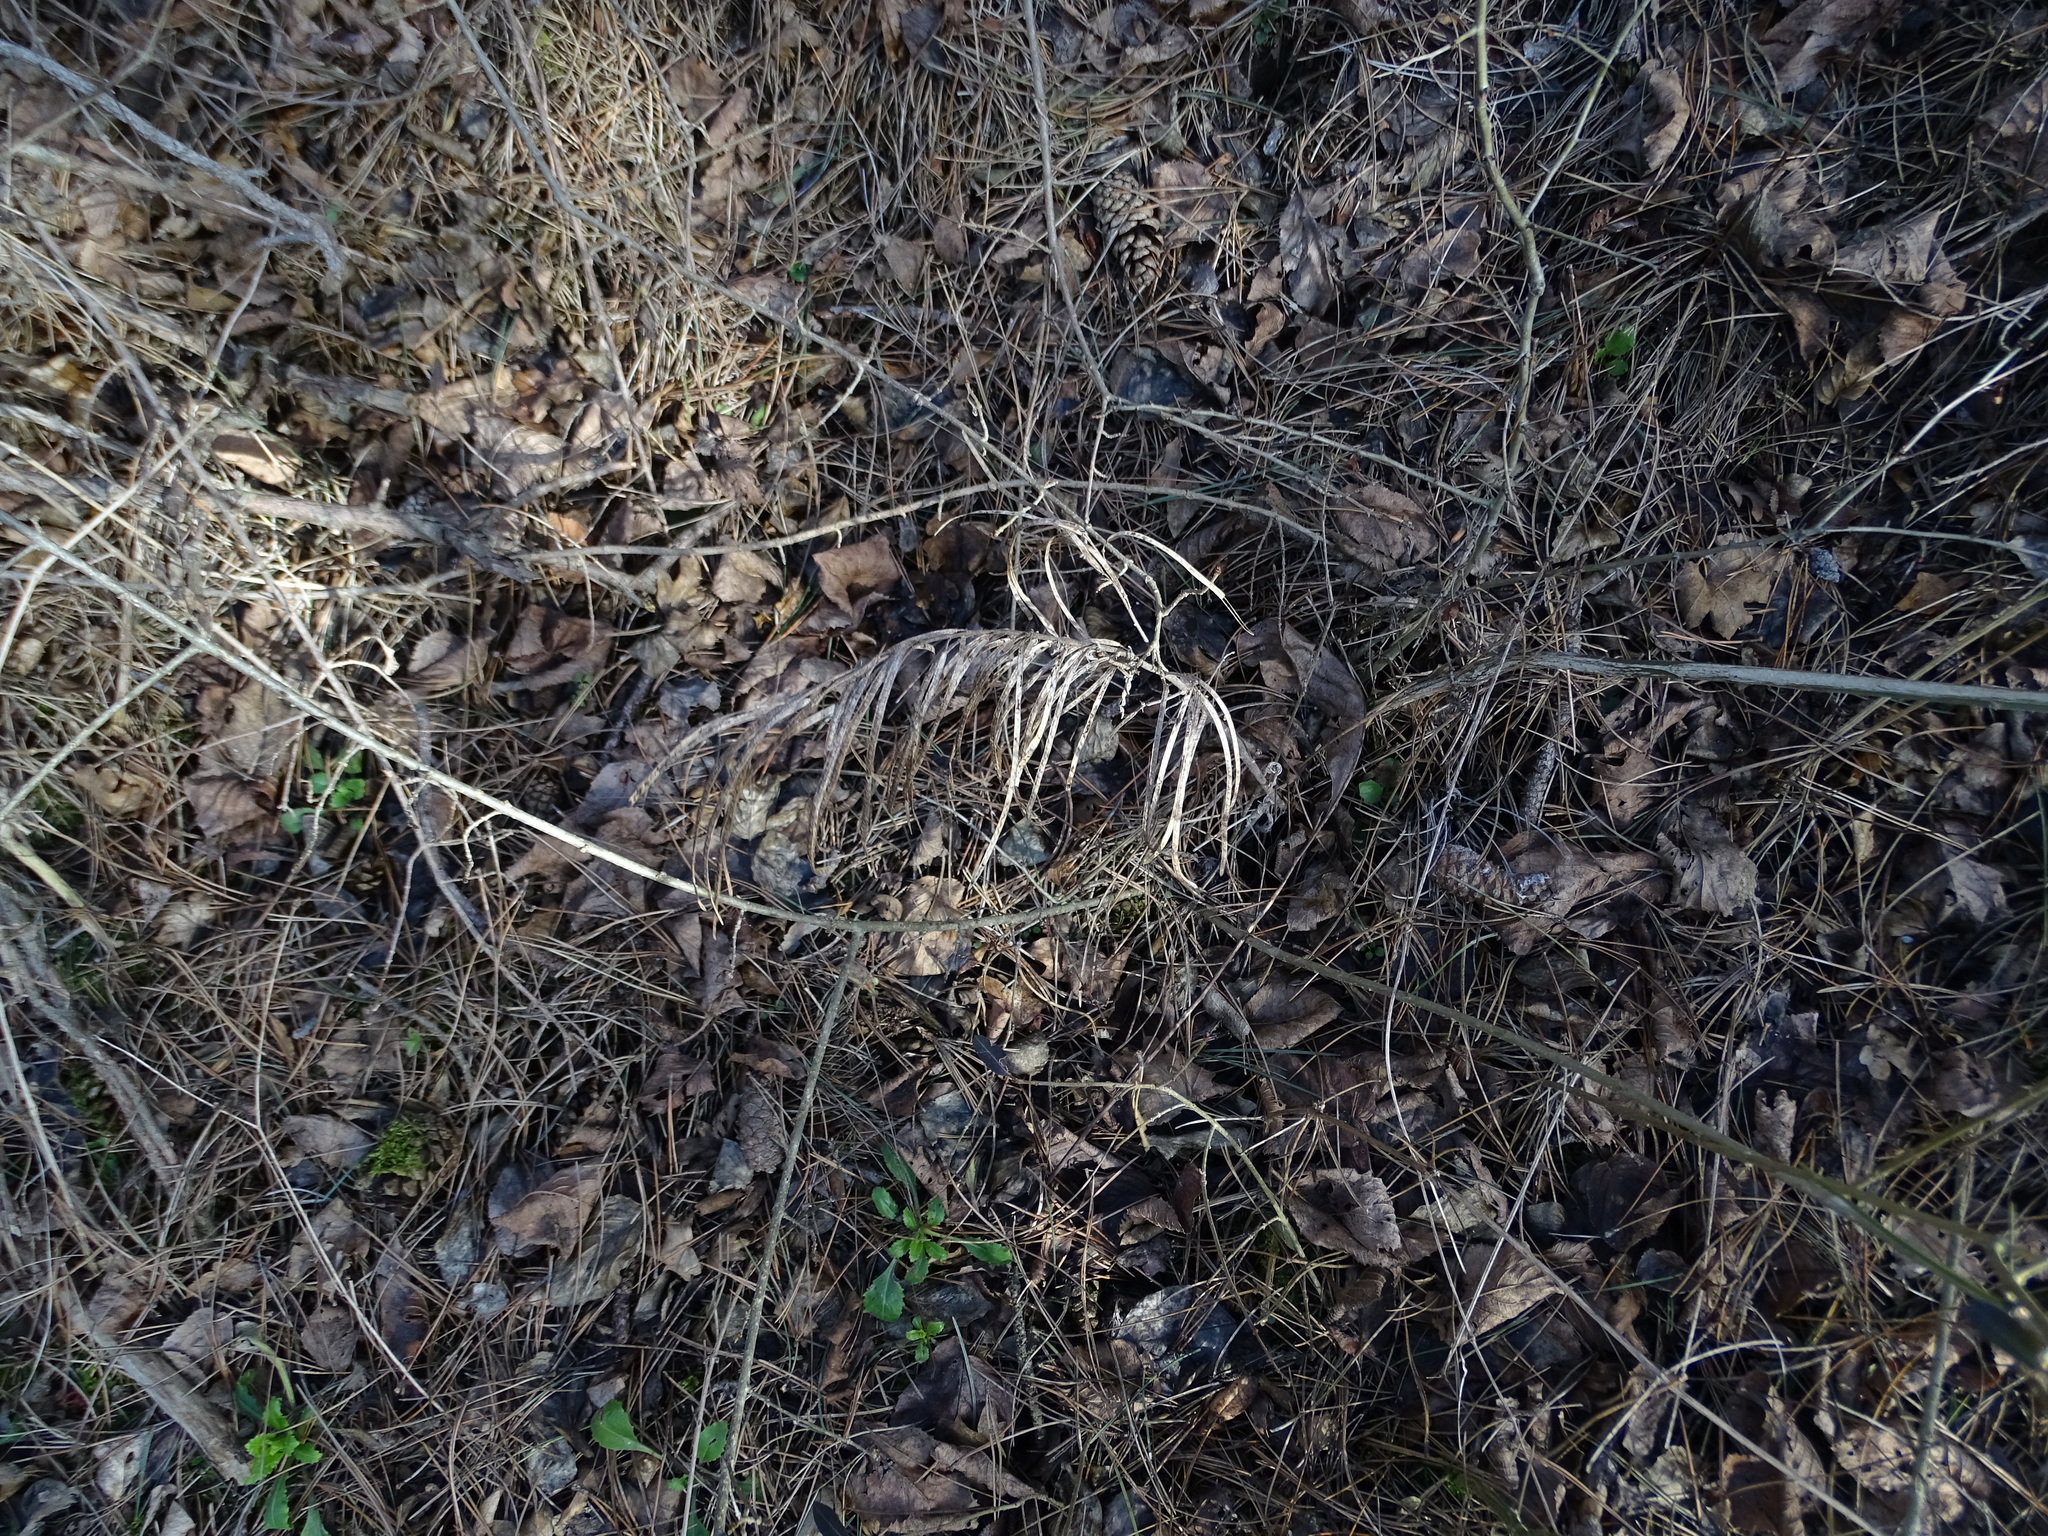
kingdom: Plantae
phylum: Tracheophyta
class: Magnoliopsida
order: Brassicales
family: Brassicaceae
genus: Pseudoturritis
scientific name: Pseudoturritis turrita
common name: Tower cress
